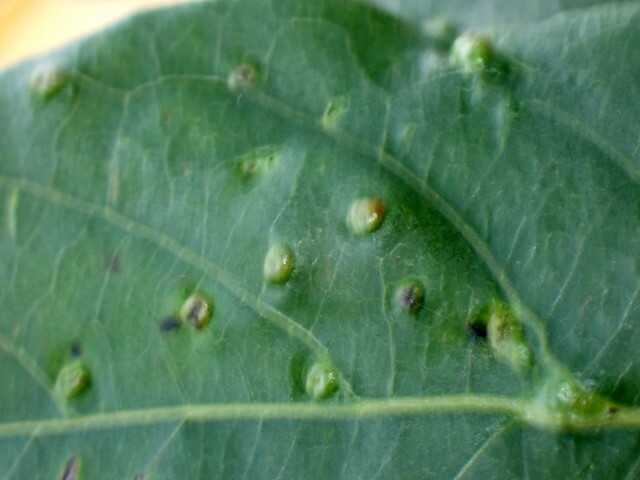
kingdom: Animalia
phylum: Arthropoda
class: Arachnida
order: Trombidiformes
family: Eriophyidae
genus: Aceria
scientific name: Aceria
